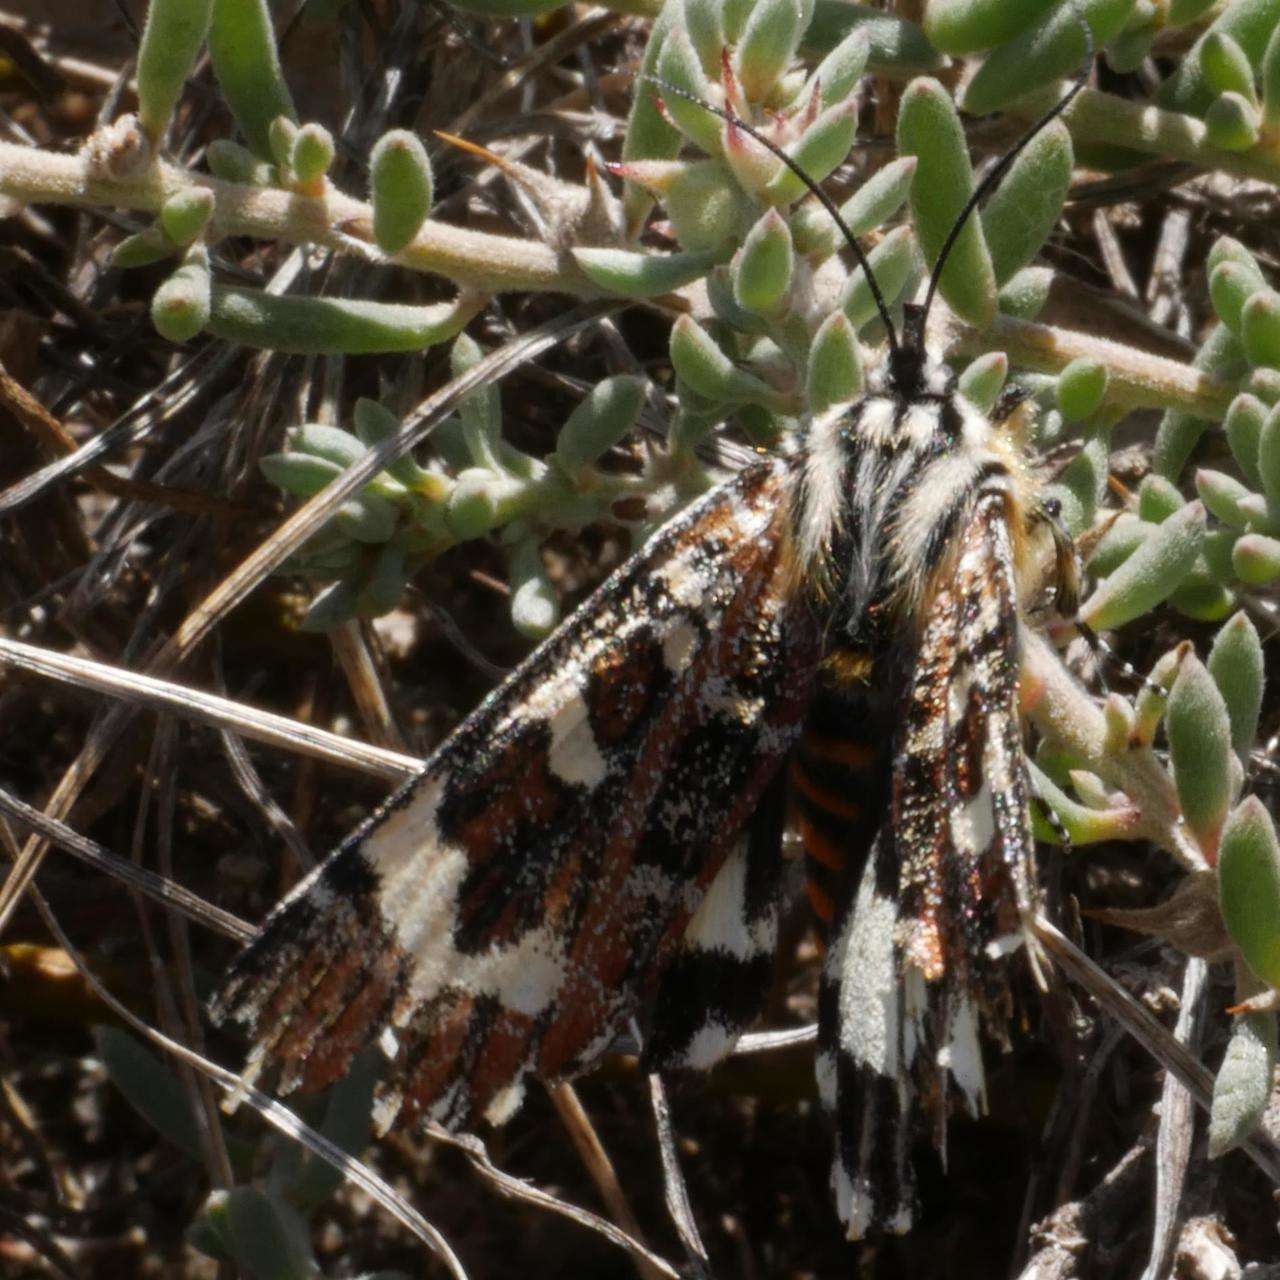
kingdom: Animalia
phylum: Arthropoda
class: Insecta
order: Lepidoptera
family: Noctuidae
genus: Apina
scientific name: Apina callisto
